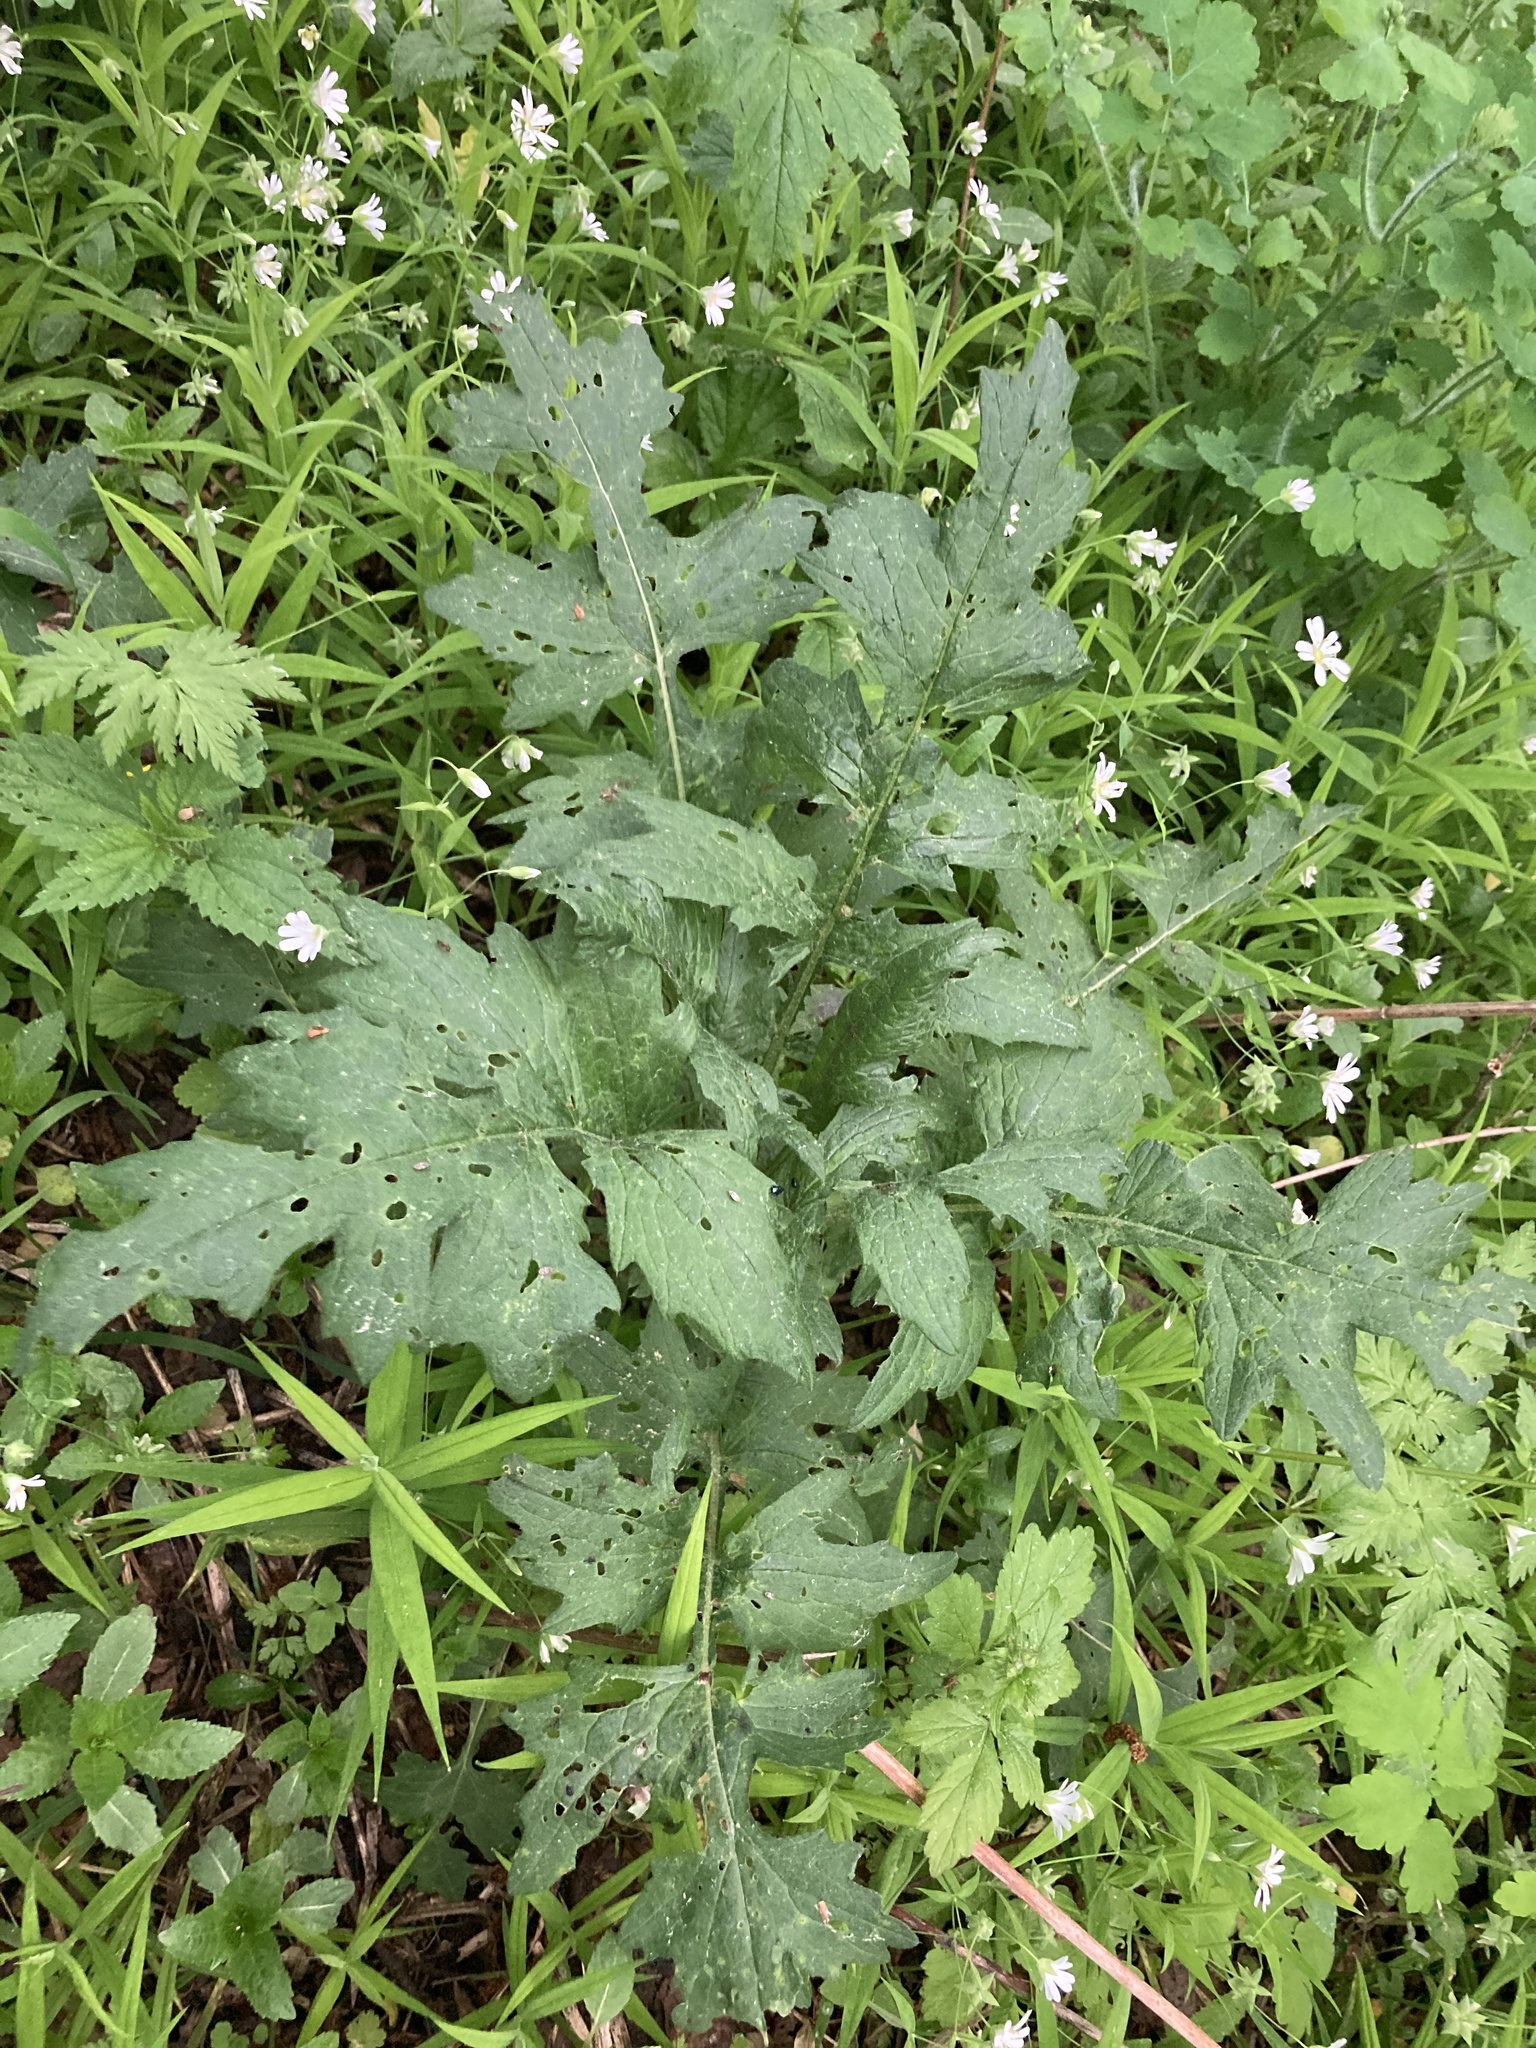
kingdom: Plantae
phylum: Tracheophyta
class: Magnoliopsida
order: Asterales
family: Asteraceae
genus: Carduus
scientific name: Carduus crispus
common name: Welted thistle
